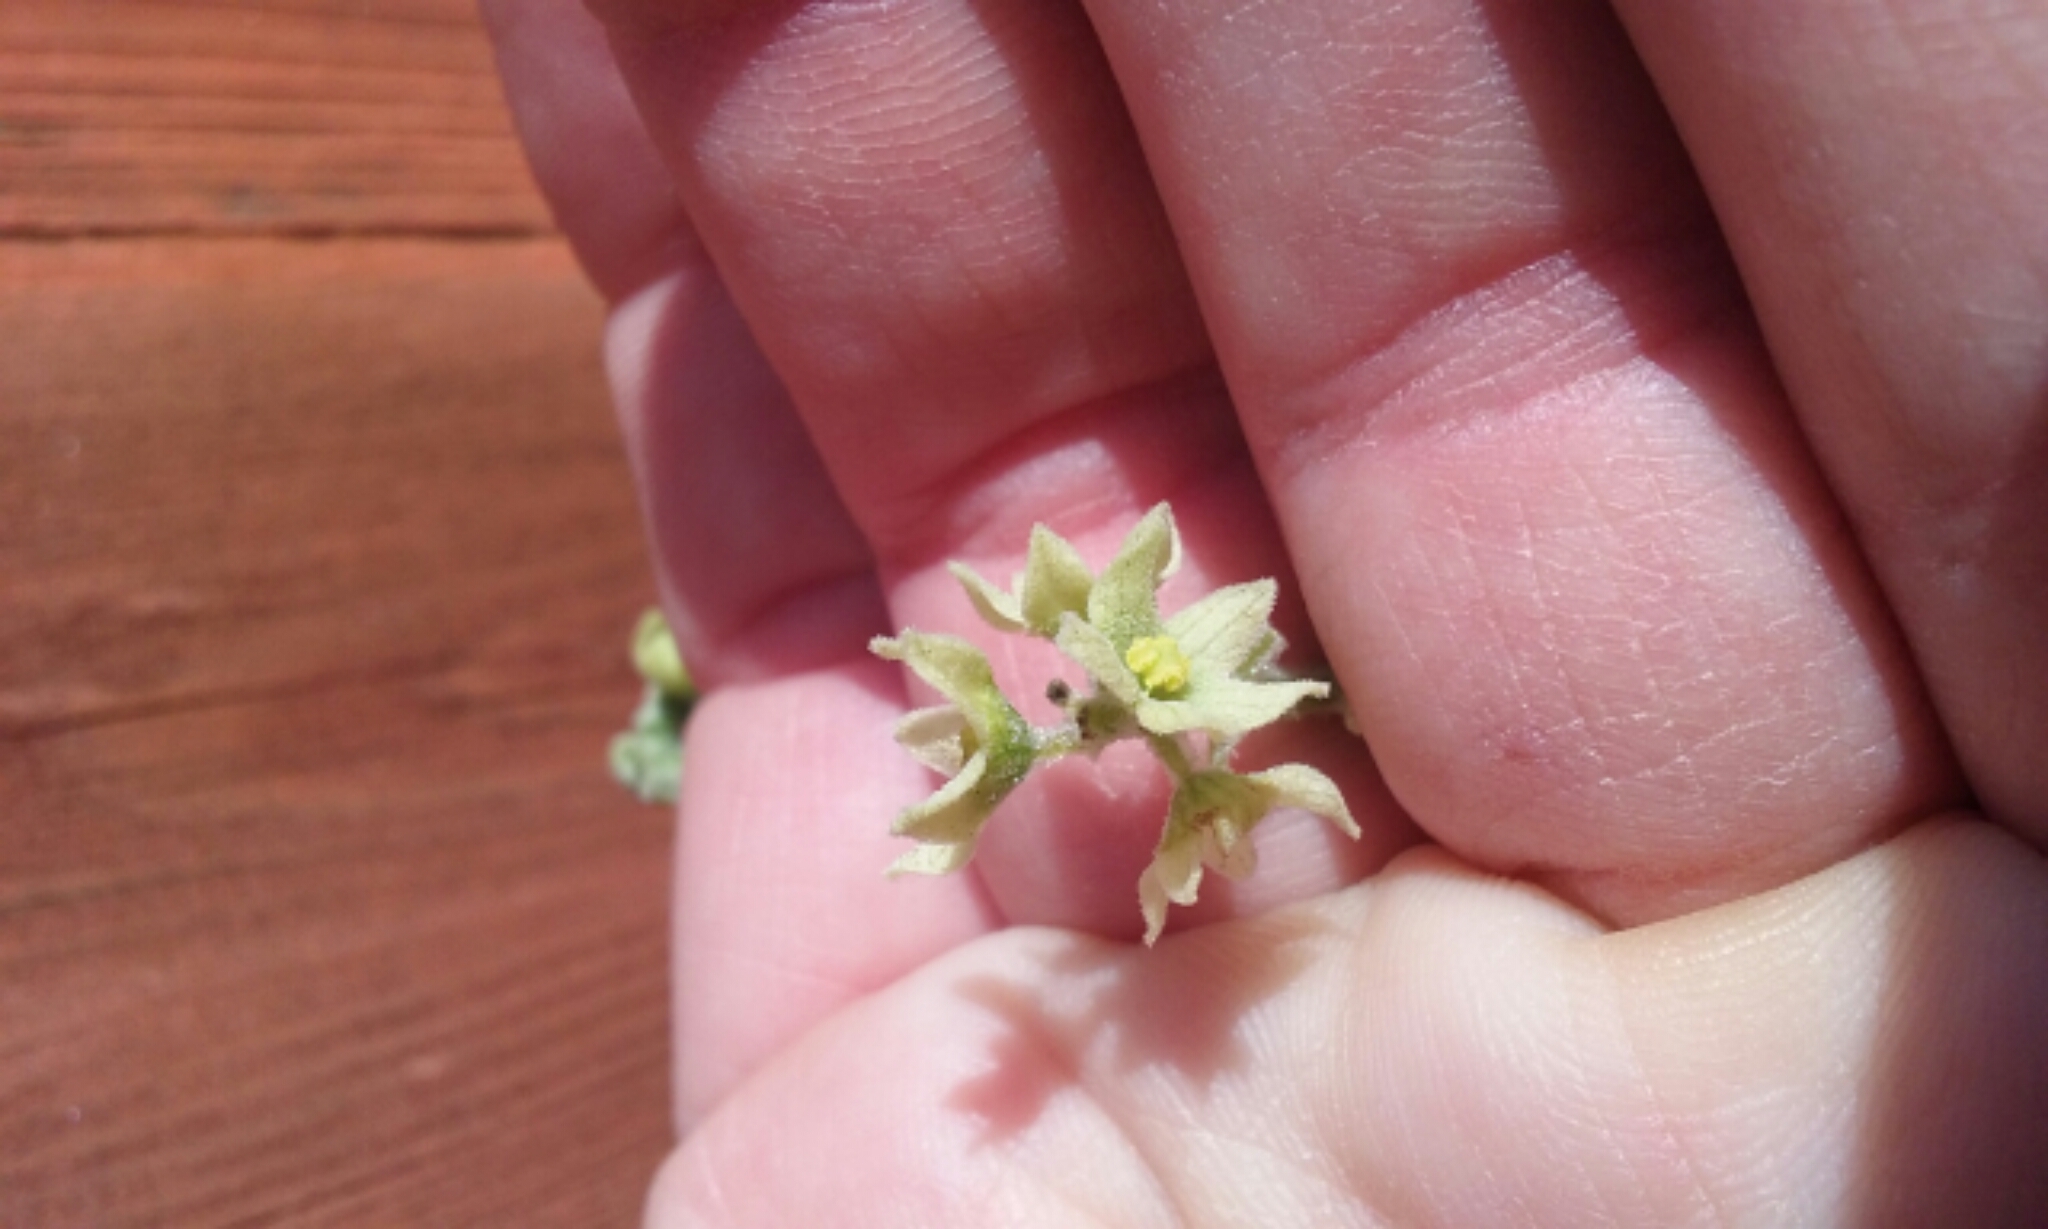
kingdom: Plantae
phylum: Tracheophyta
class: Magnoliopsida
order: Cucurbitales
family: Cucurbitaceae
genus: Marah
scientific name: Marah fabacea
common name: California manroot
